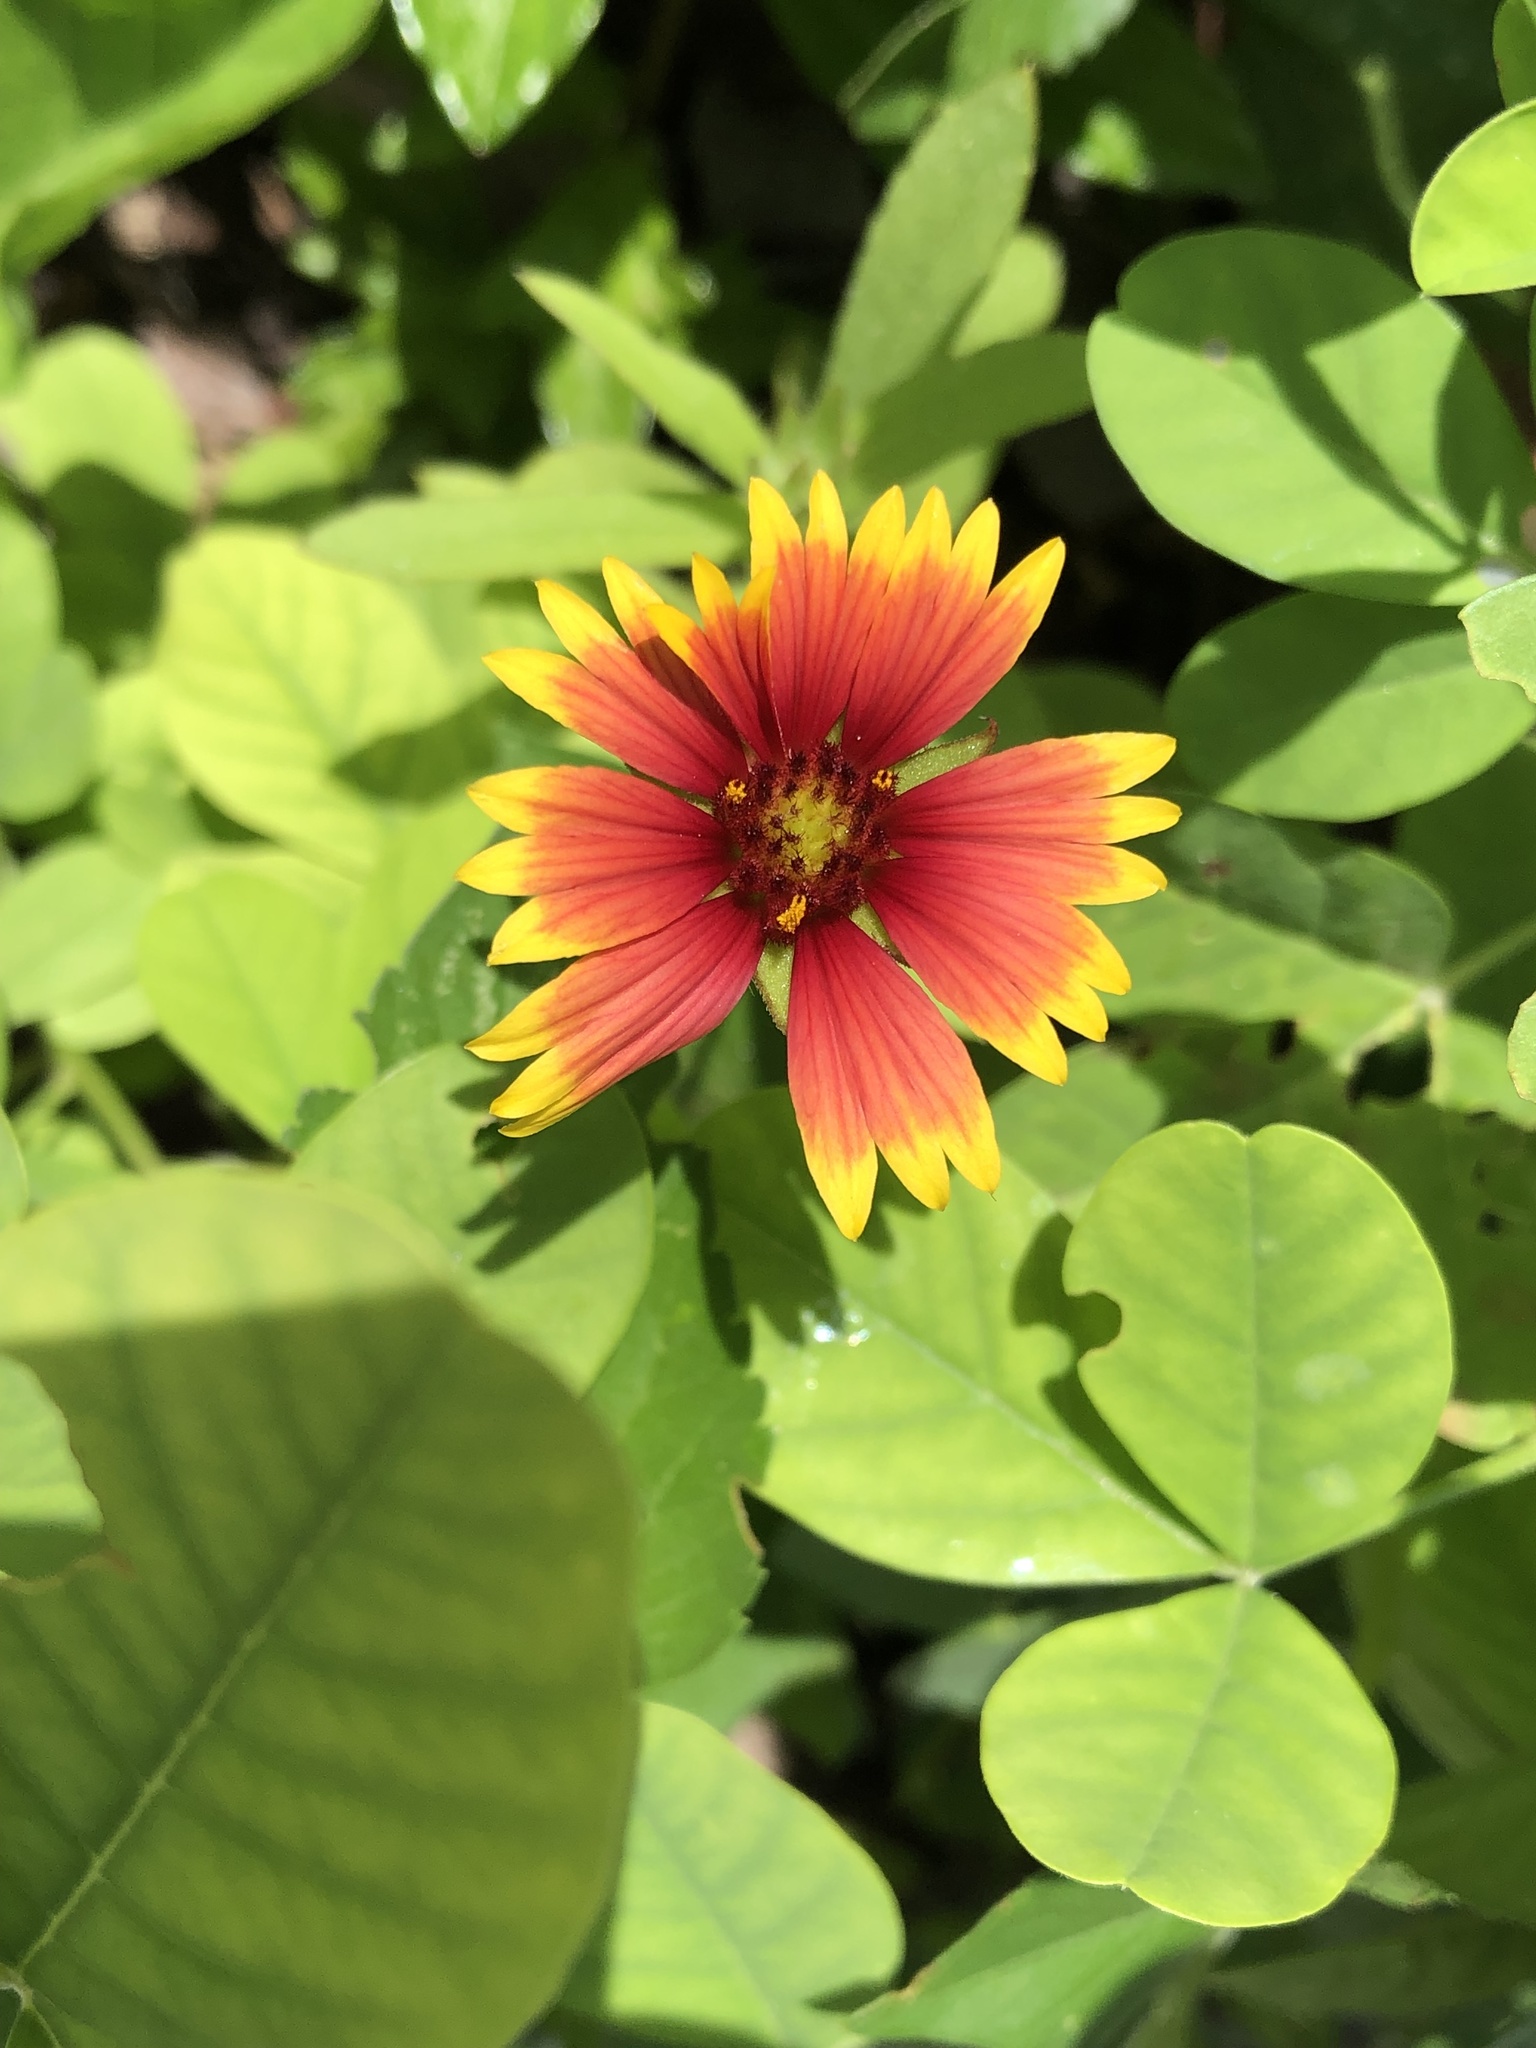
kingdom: Plantae
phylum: Tracheophyta
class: Magnoliopsida
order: Asterales
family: Asteraceae
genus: Gaillardia
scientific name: Gaillardia pulchella
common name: Firewheel
